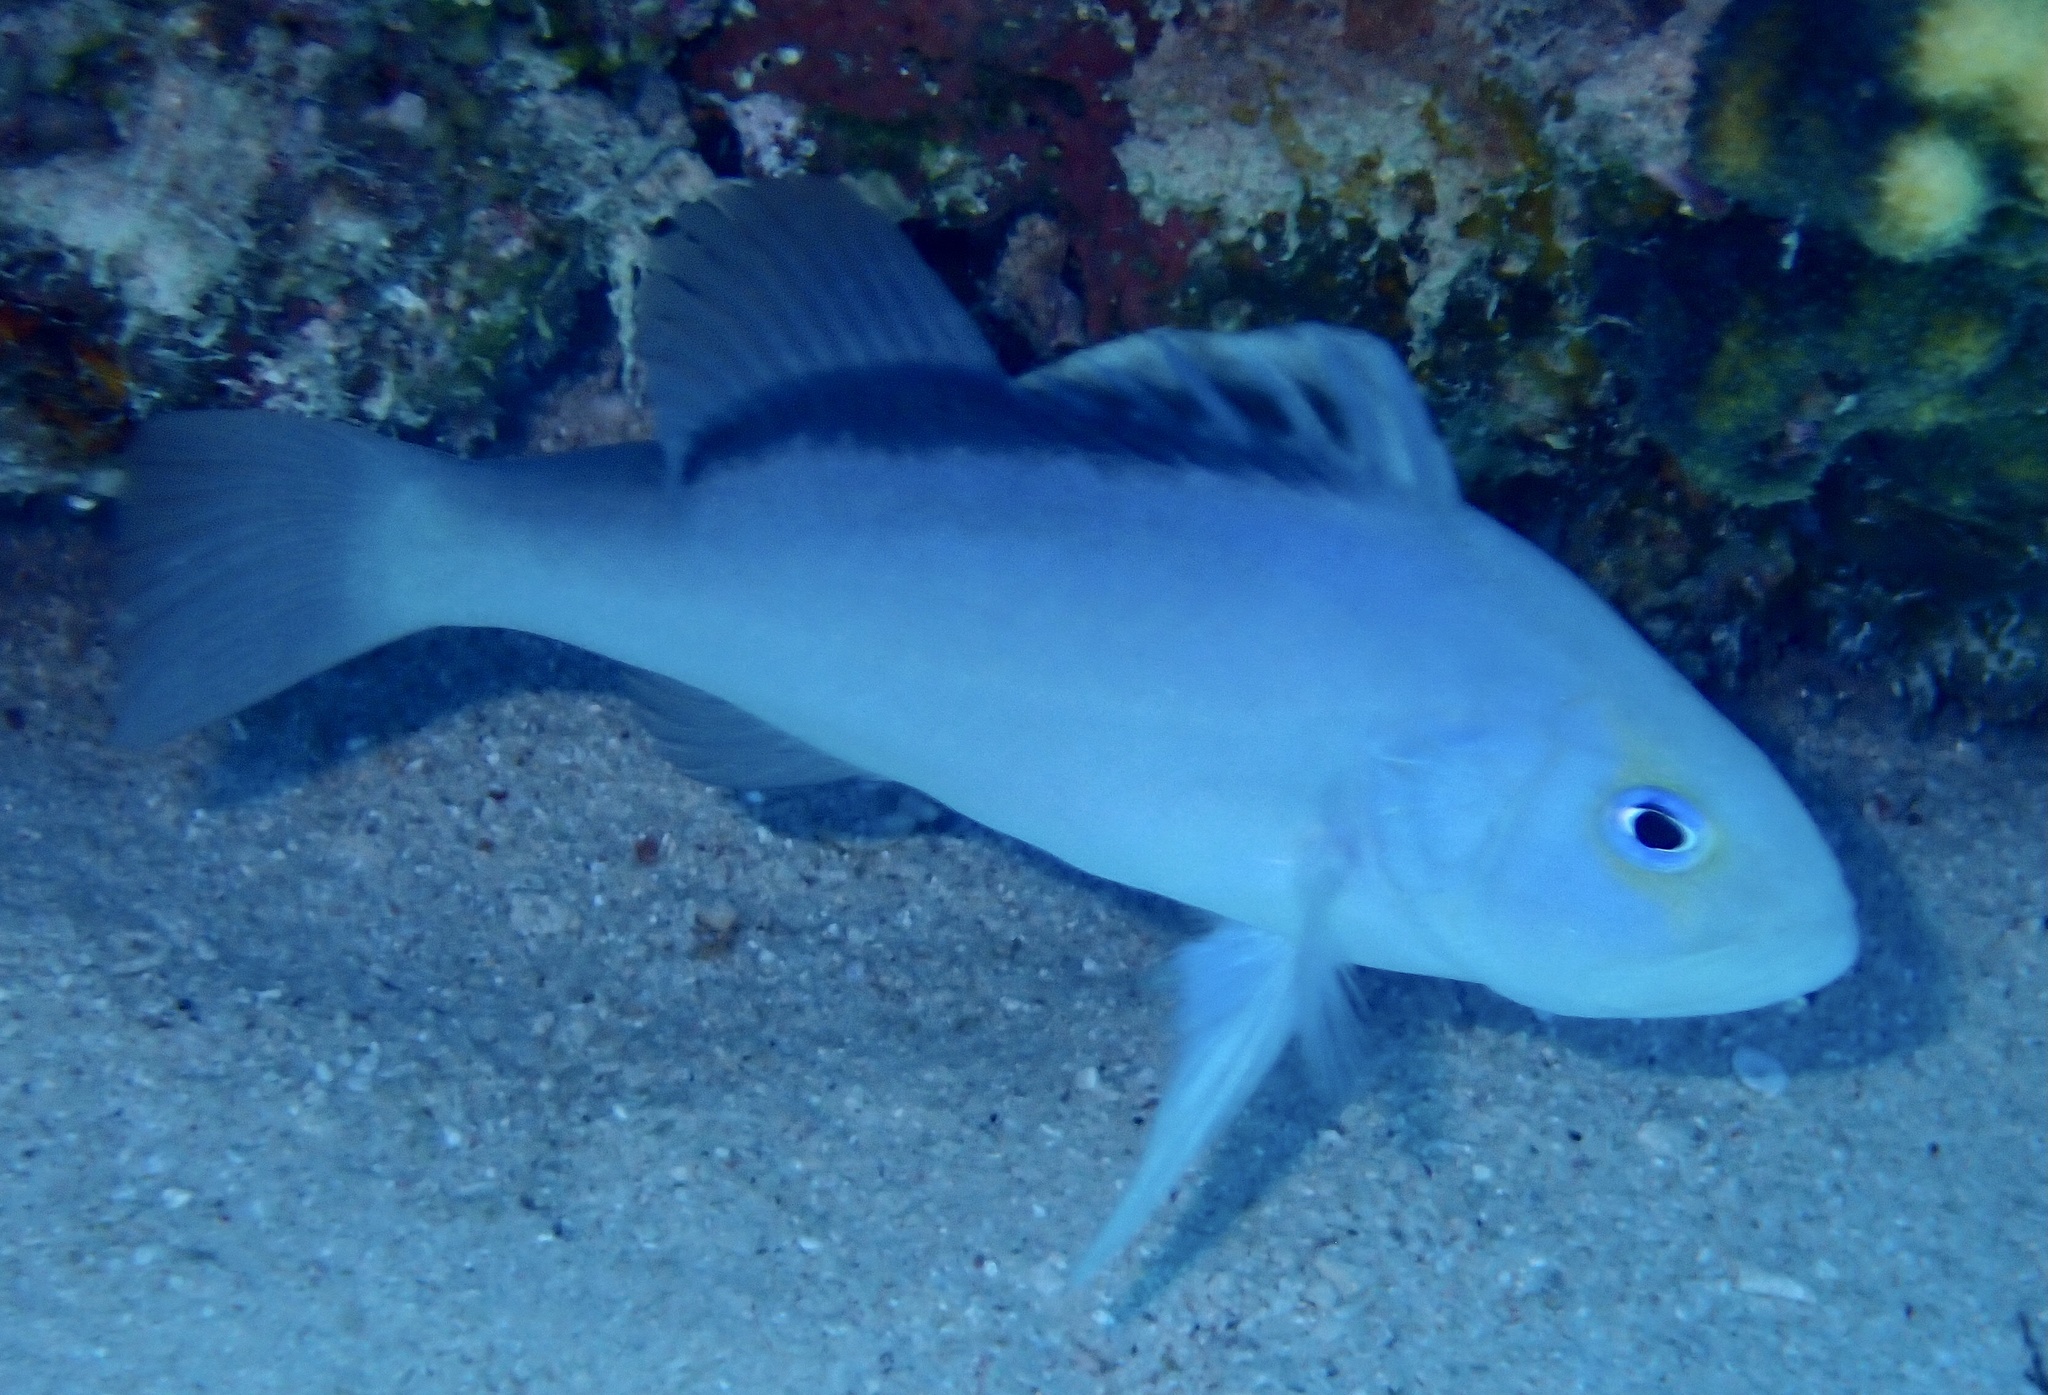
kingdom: Animalia
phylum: Chordata
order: Perciformes
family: Serranidae
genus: Diploprion
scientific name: Diploprion drachi
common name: Yellowface soapfish
